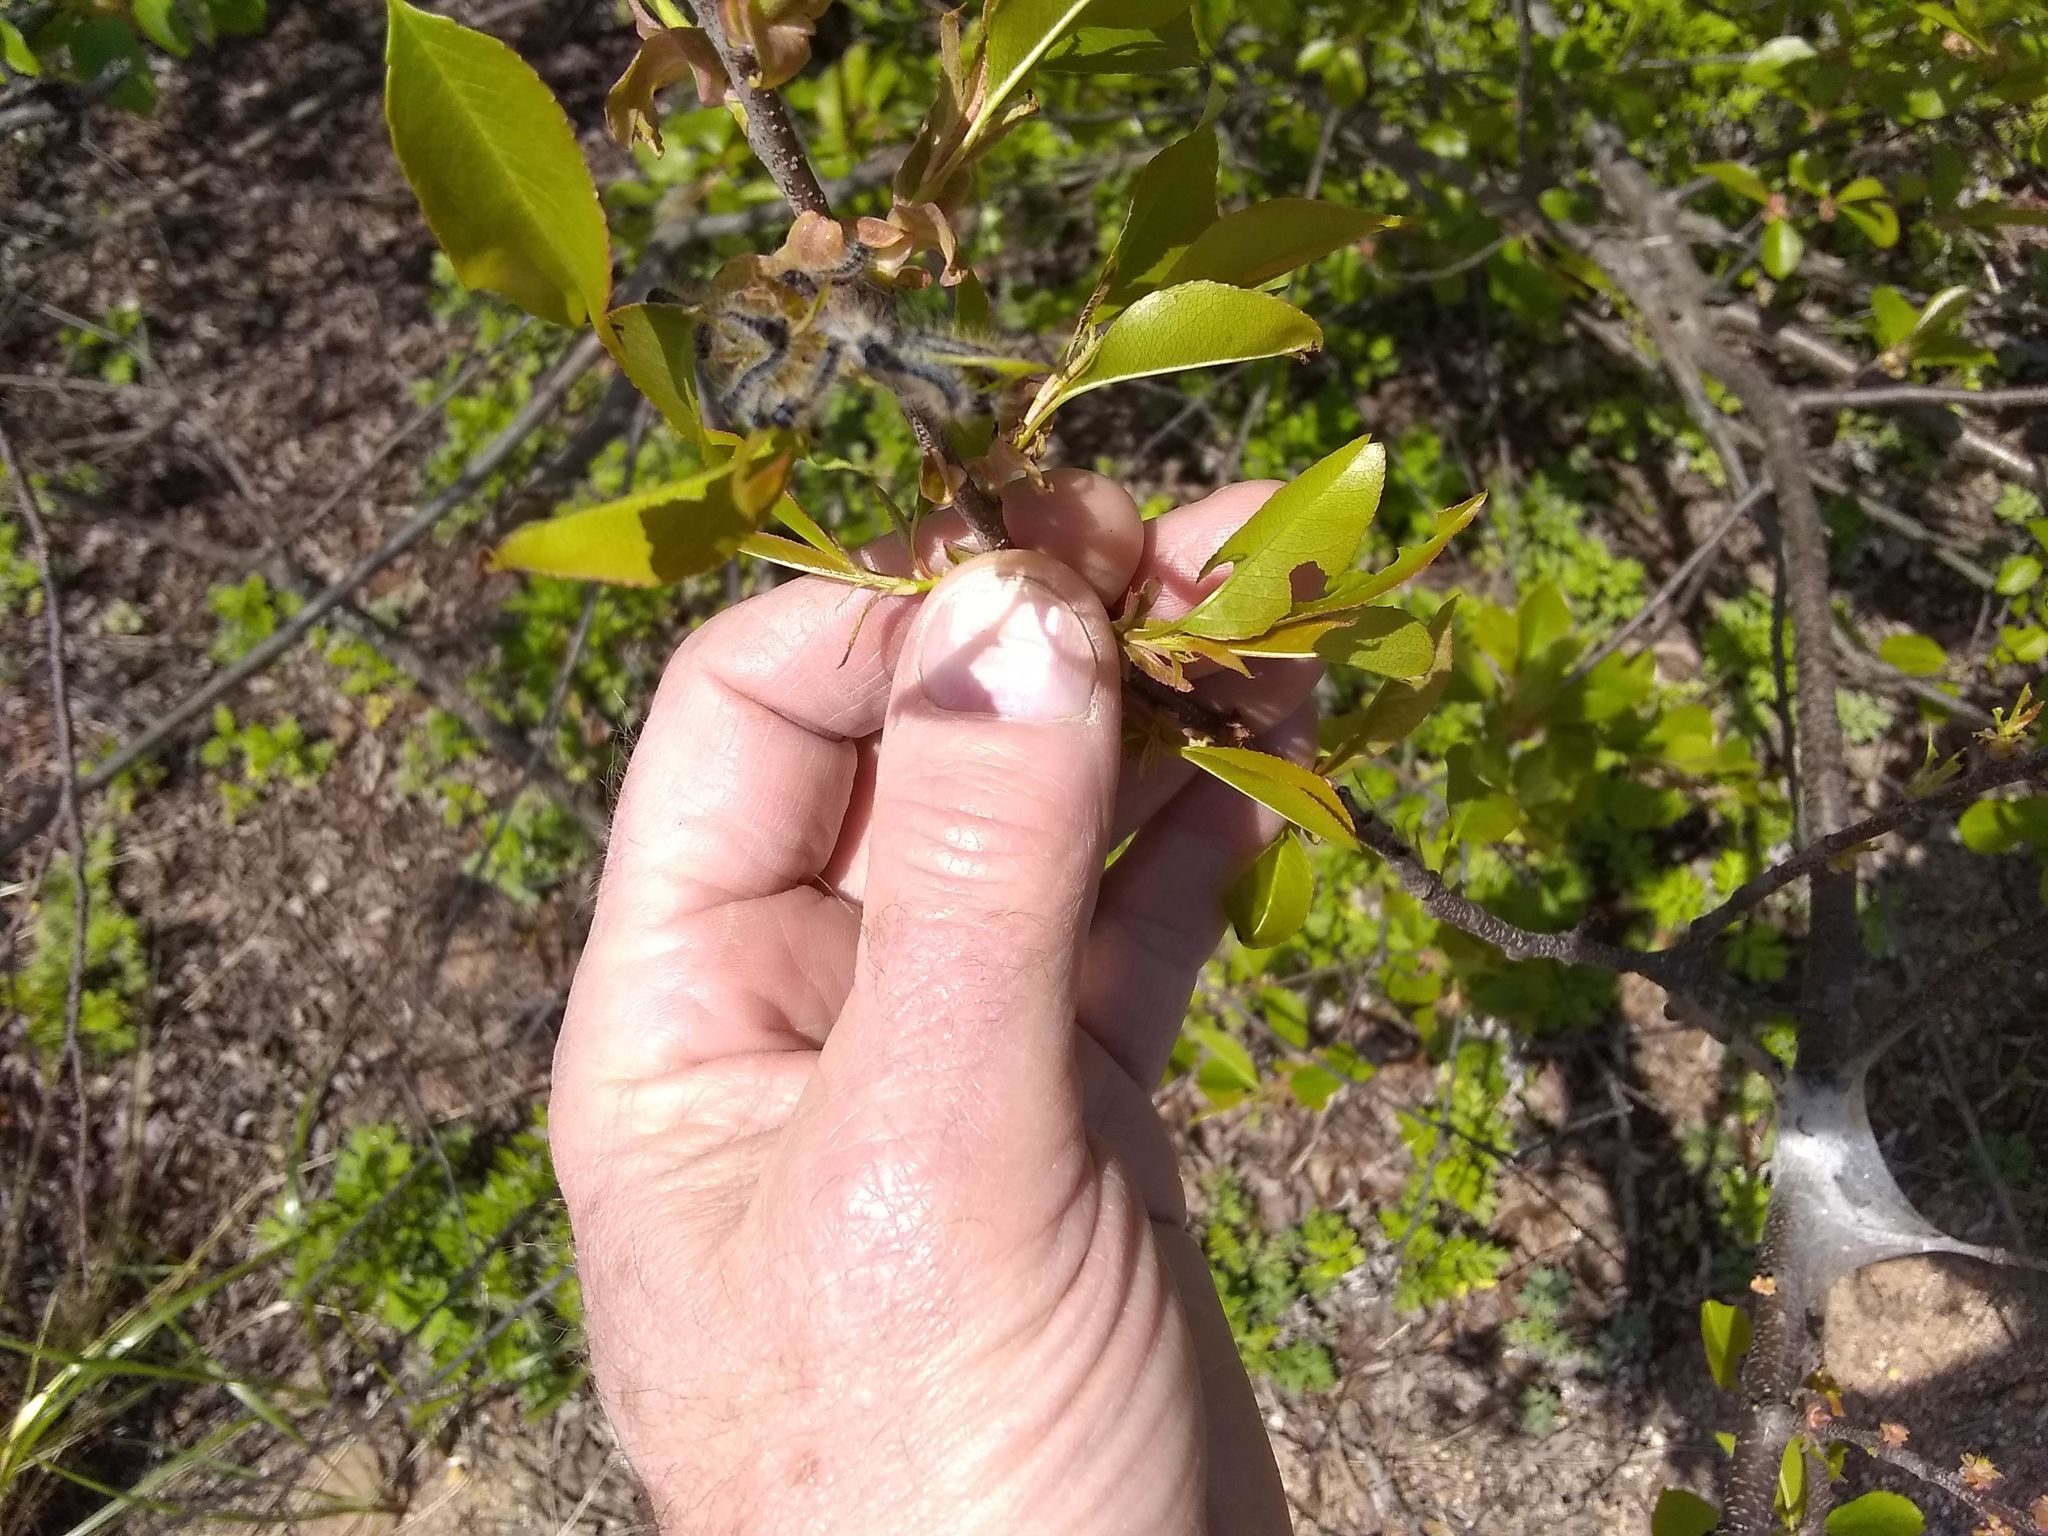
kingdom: Animalia
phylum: Arthropoda
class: Insecta
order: Lepidoptera
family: Lasiocampidae
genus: Malacosoma
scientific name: Malacosoma americana
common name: Eastern tent caterpillar moth
